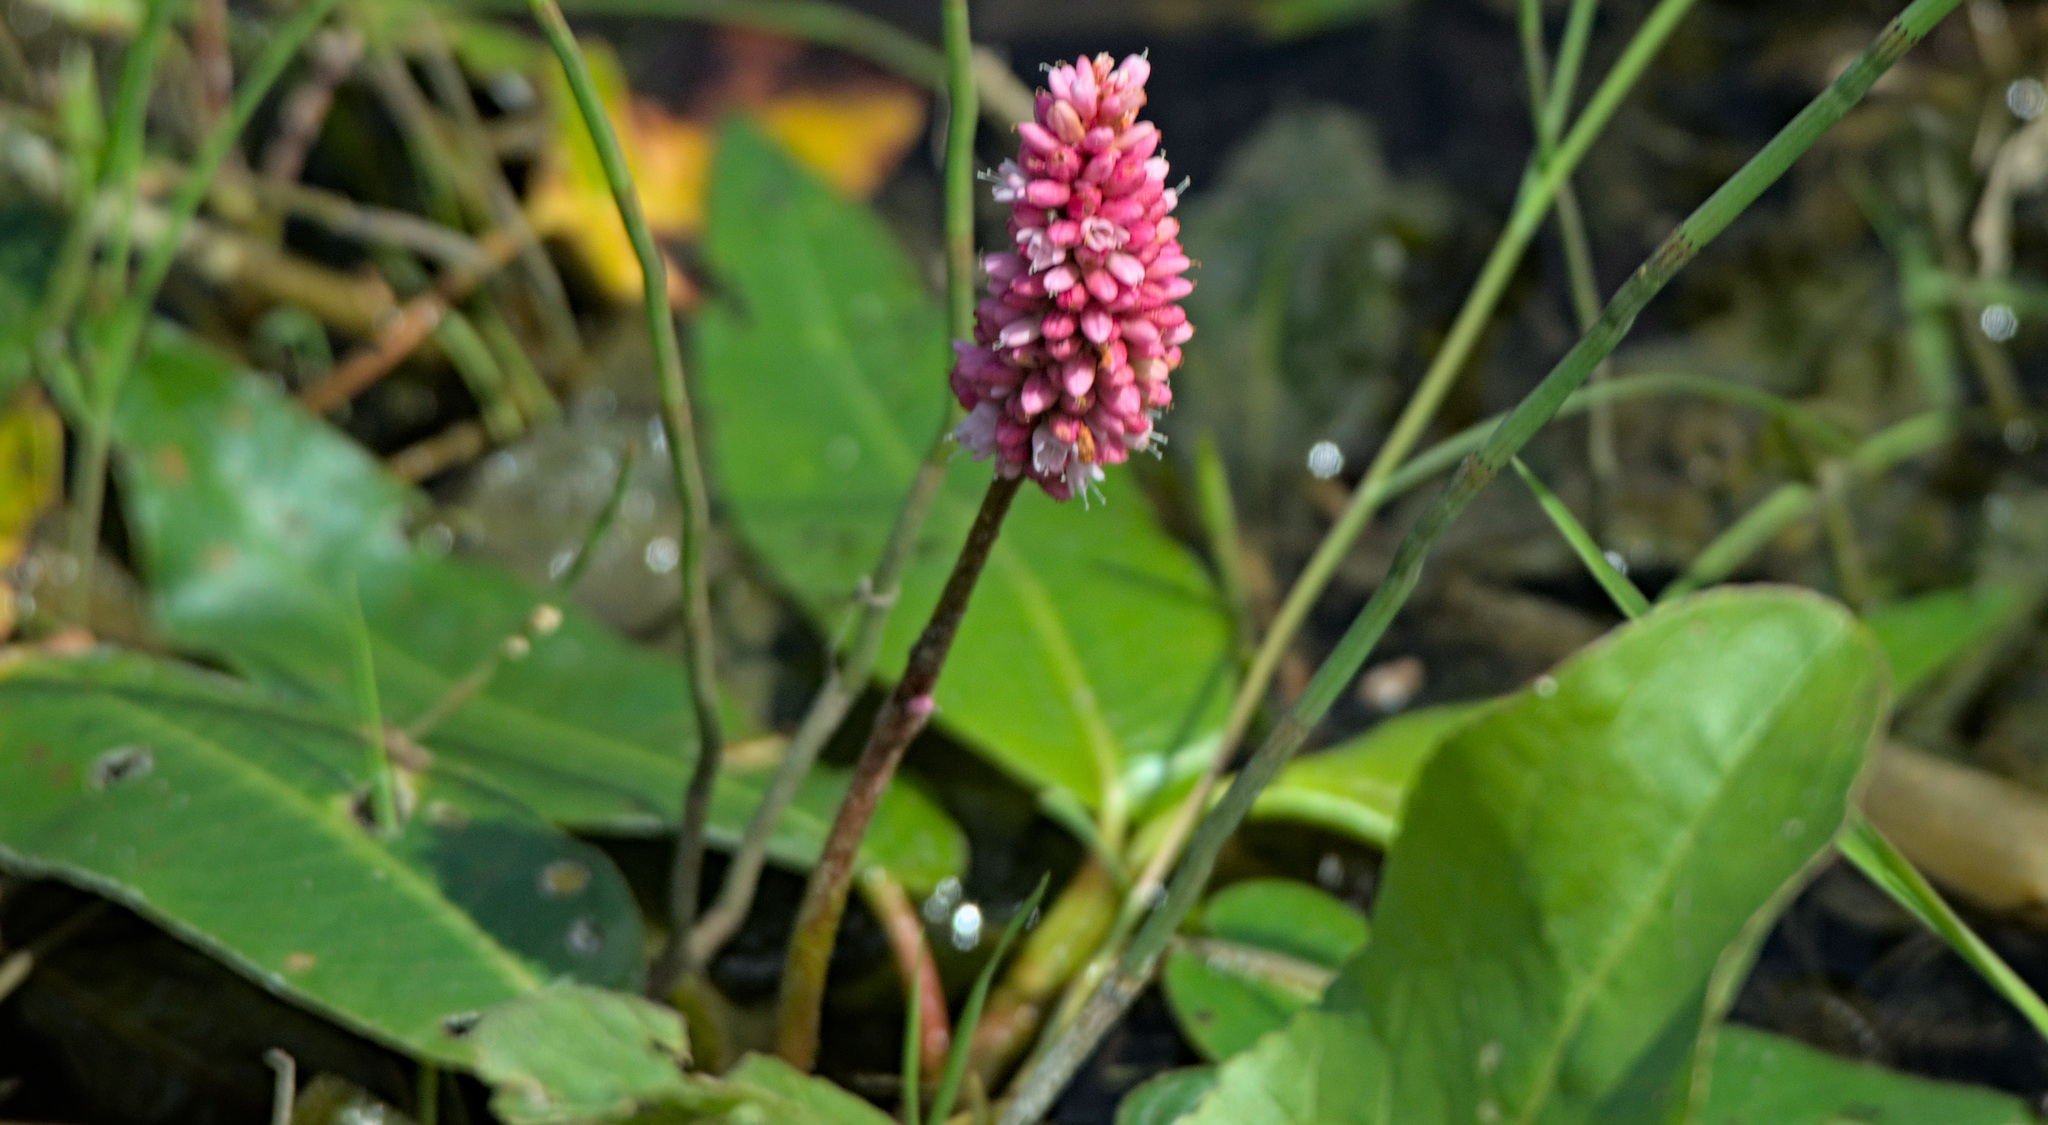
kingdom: Plantae
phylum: Tracheophyta
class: Magnoliopsida
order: Caryophyllales
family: Polygonaceae
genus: Persicaria
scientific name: Persicaria amphibia
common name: Amphibious bistort
